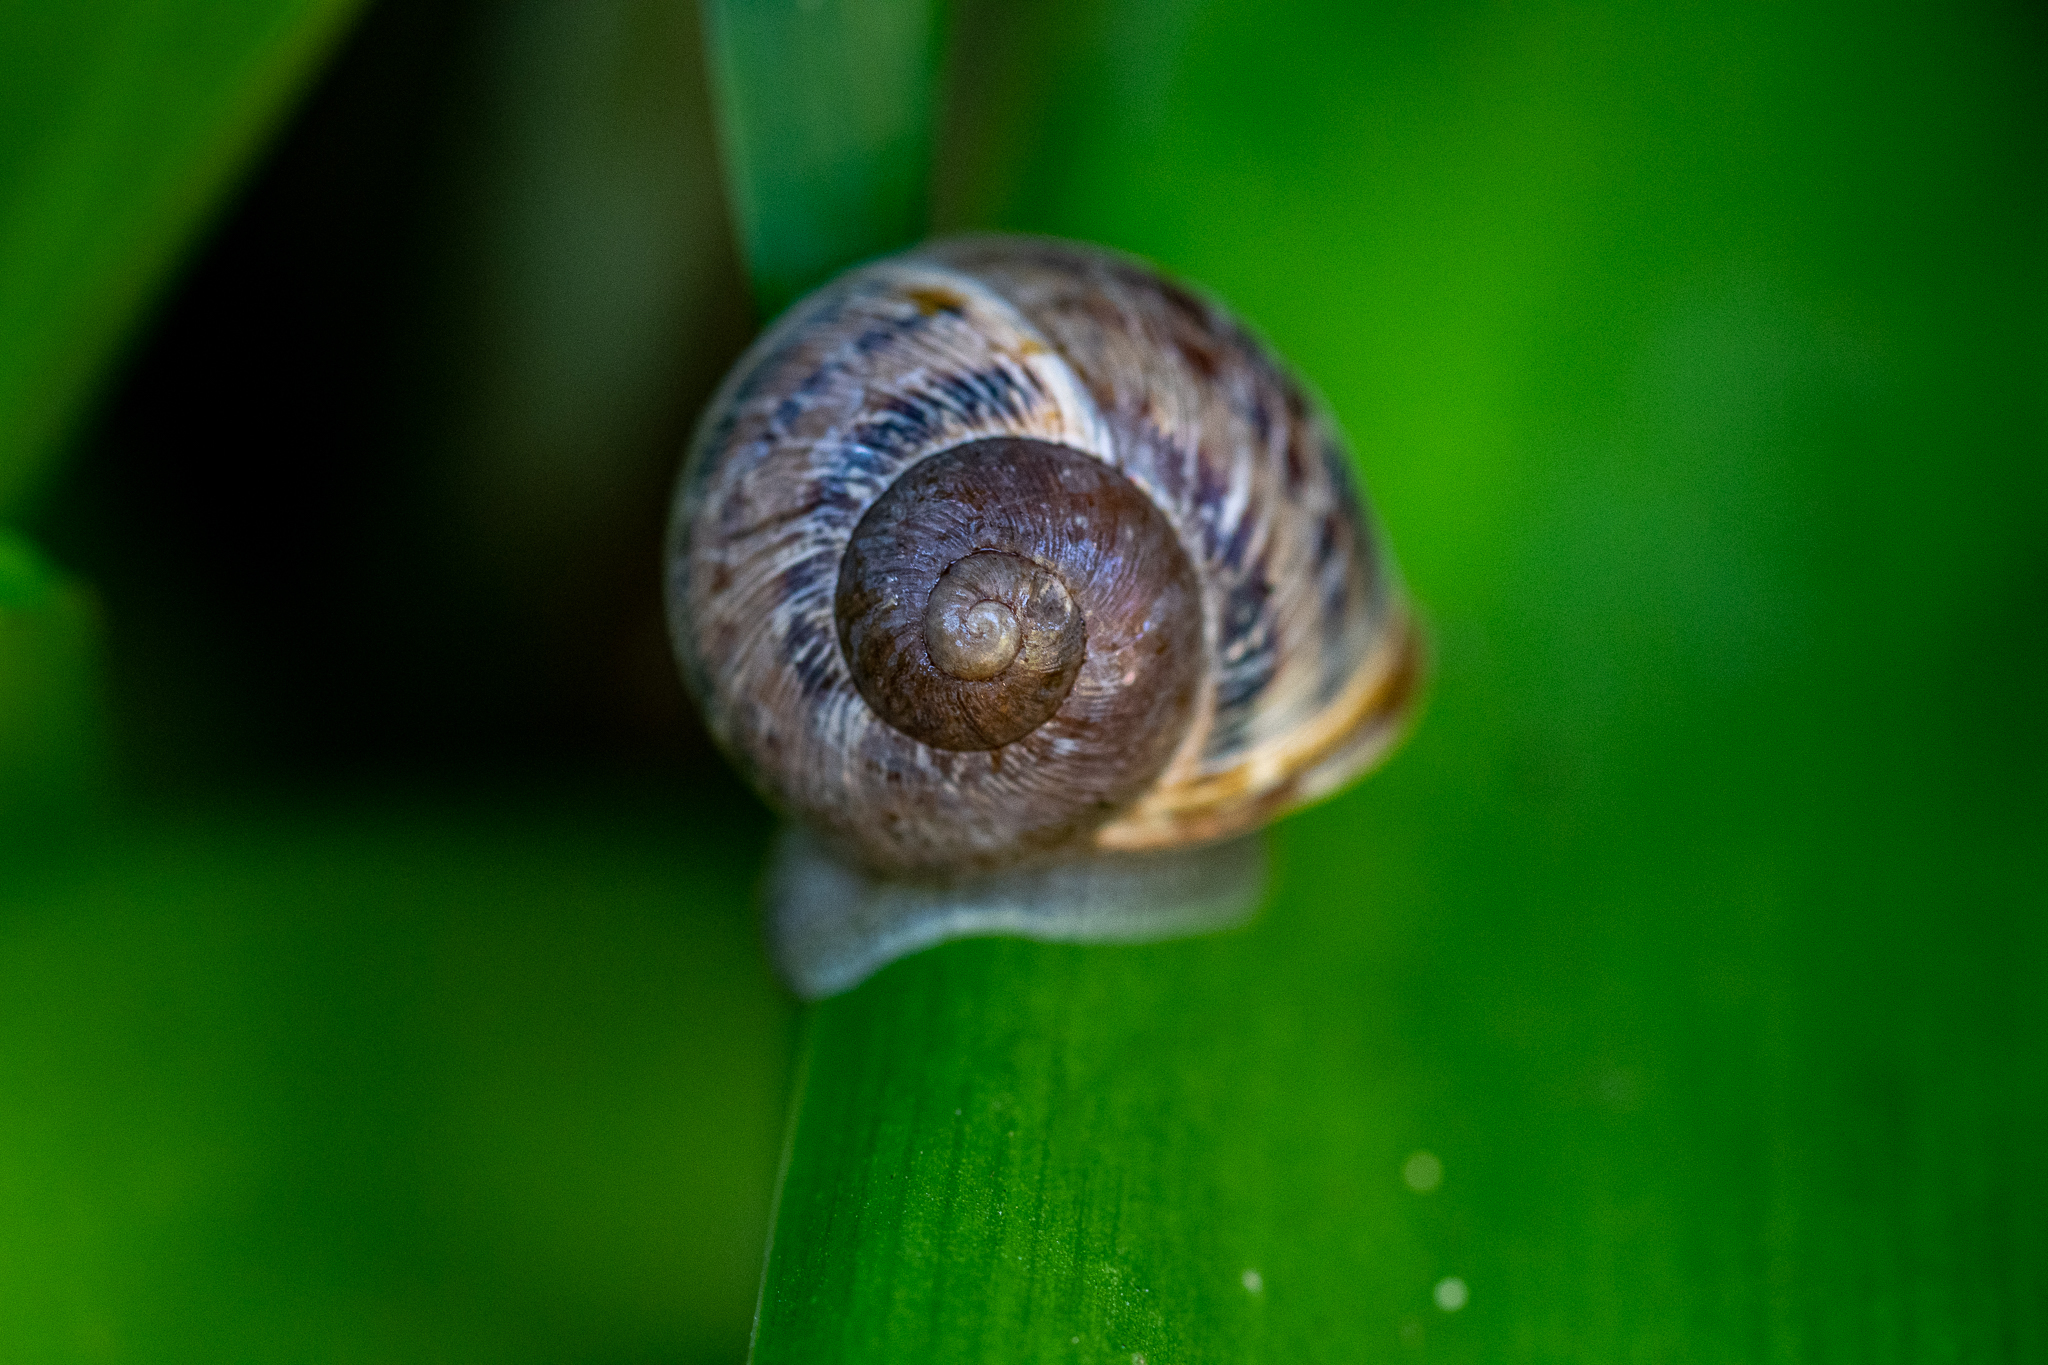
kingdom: Animalia
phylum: Mollusca
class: Gastropoda
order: Stylommatophora
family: Helicidae
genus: Cornu
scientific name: Cornu aspersum
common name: Brown garden snail
